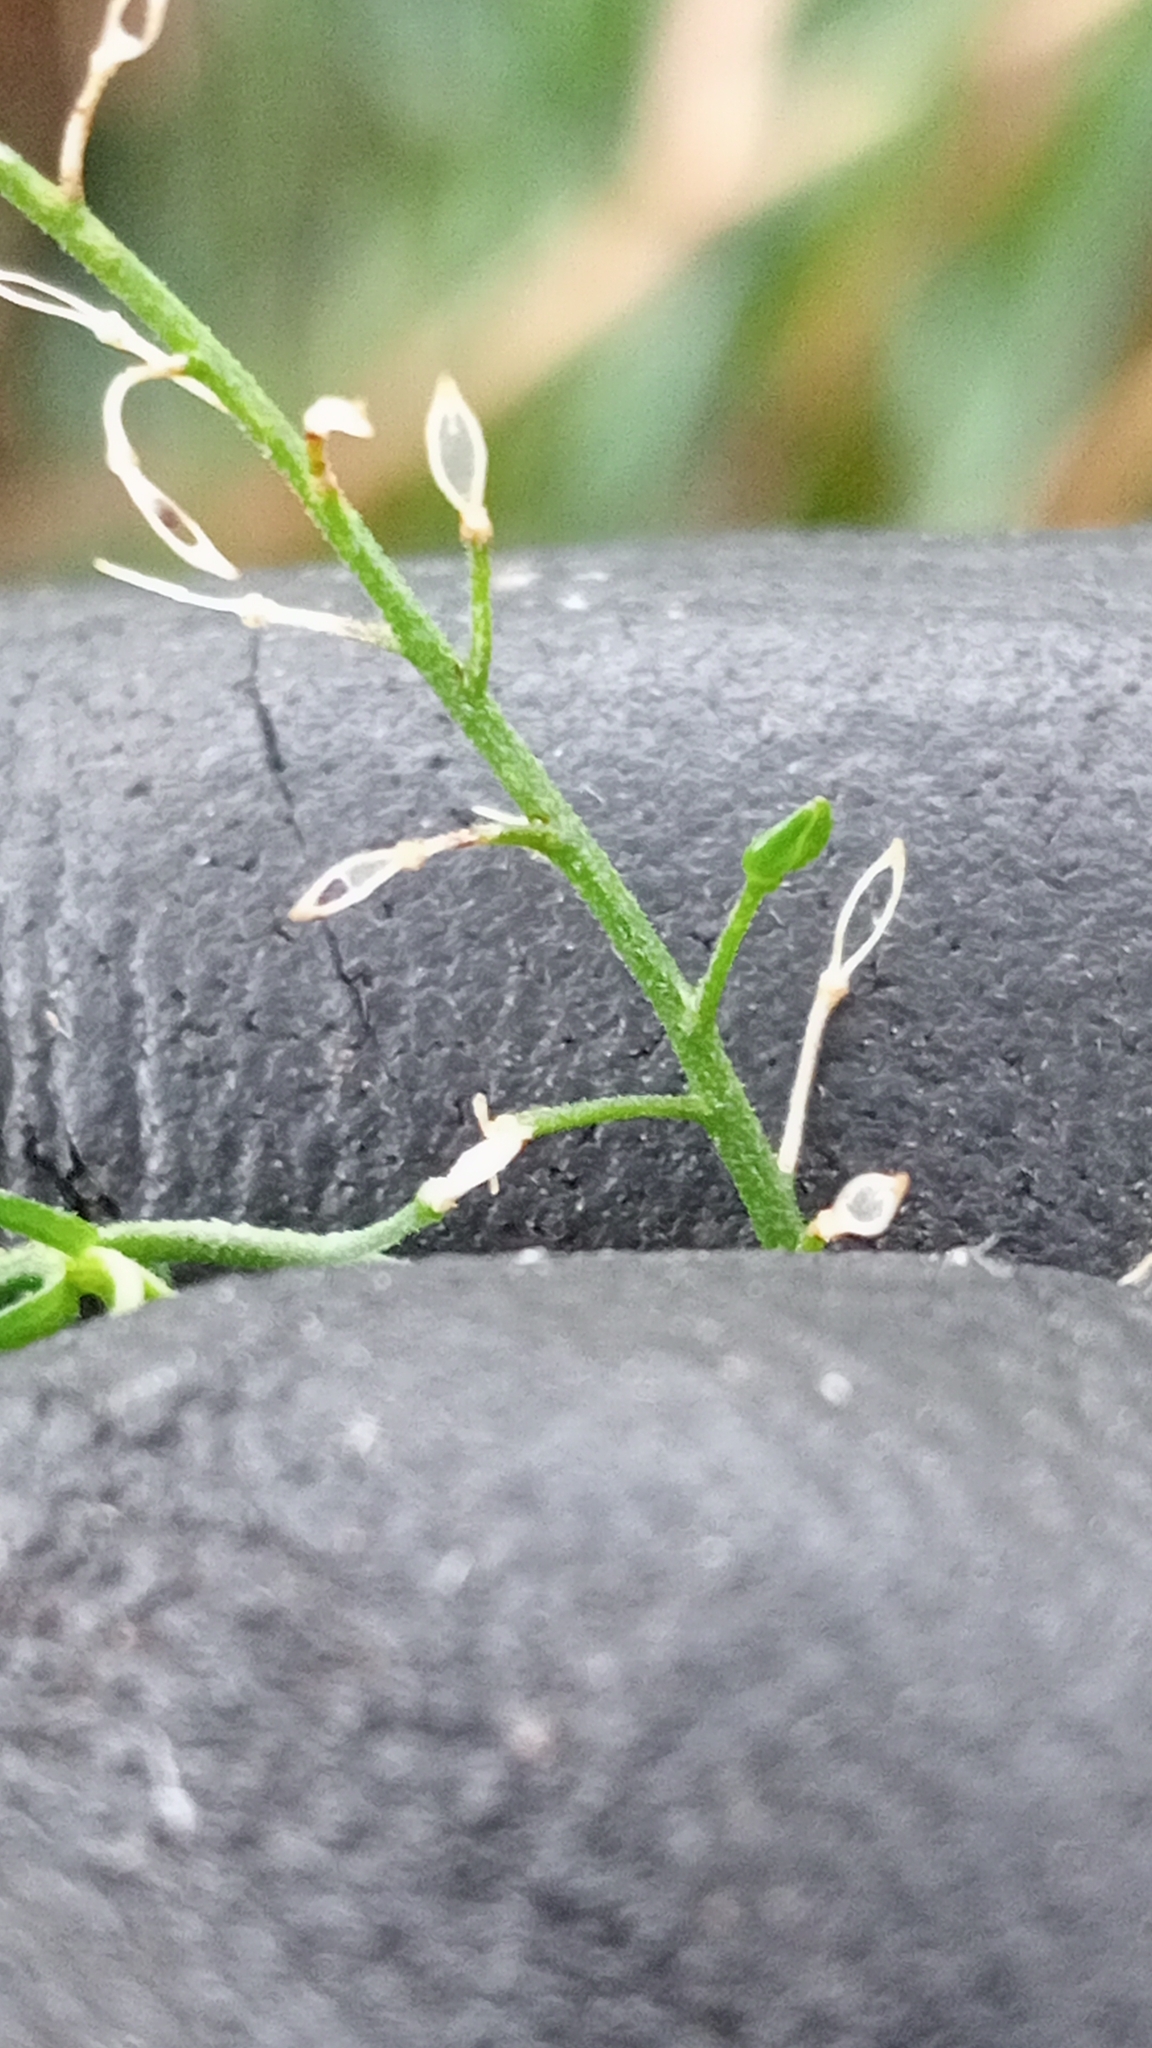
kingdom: Plantae
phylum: Tracheophyta
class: Magnoliopsida
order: Brassicales
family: Brassicaceae
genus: Lepidium
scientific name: Lepidium desvauxii
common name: Bushy pepperwort
